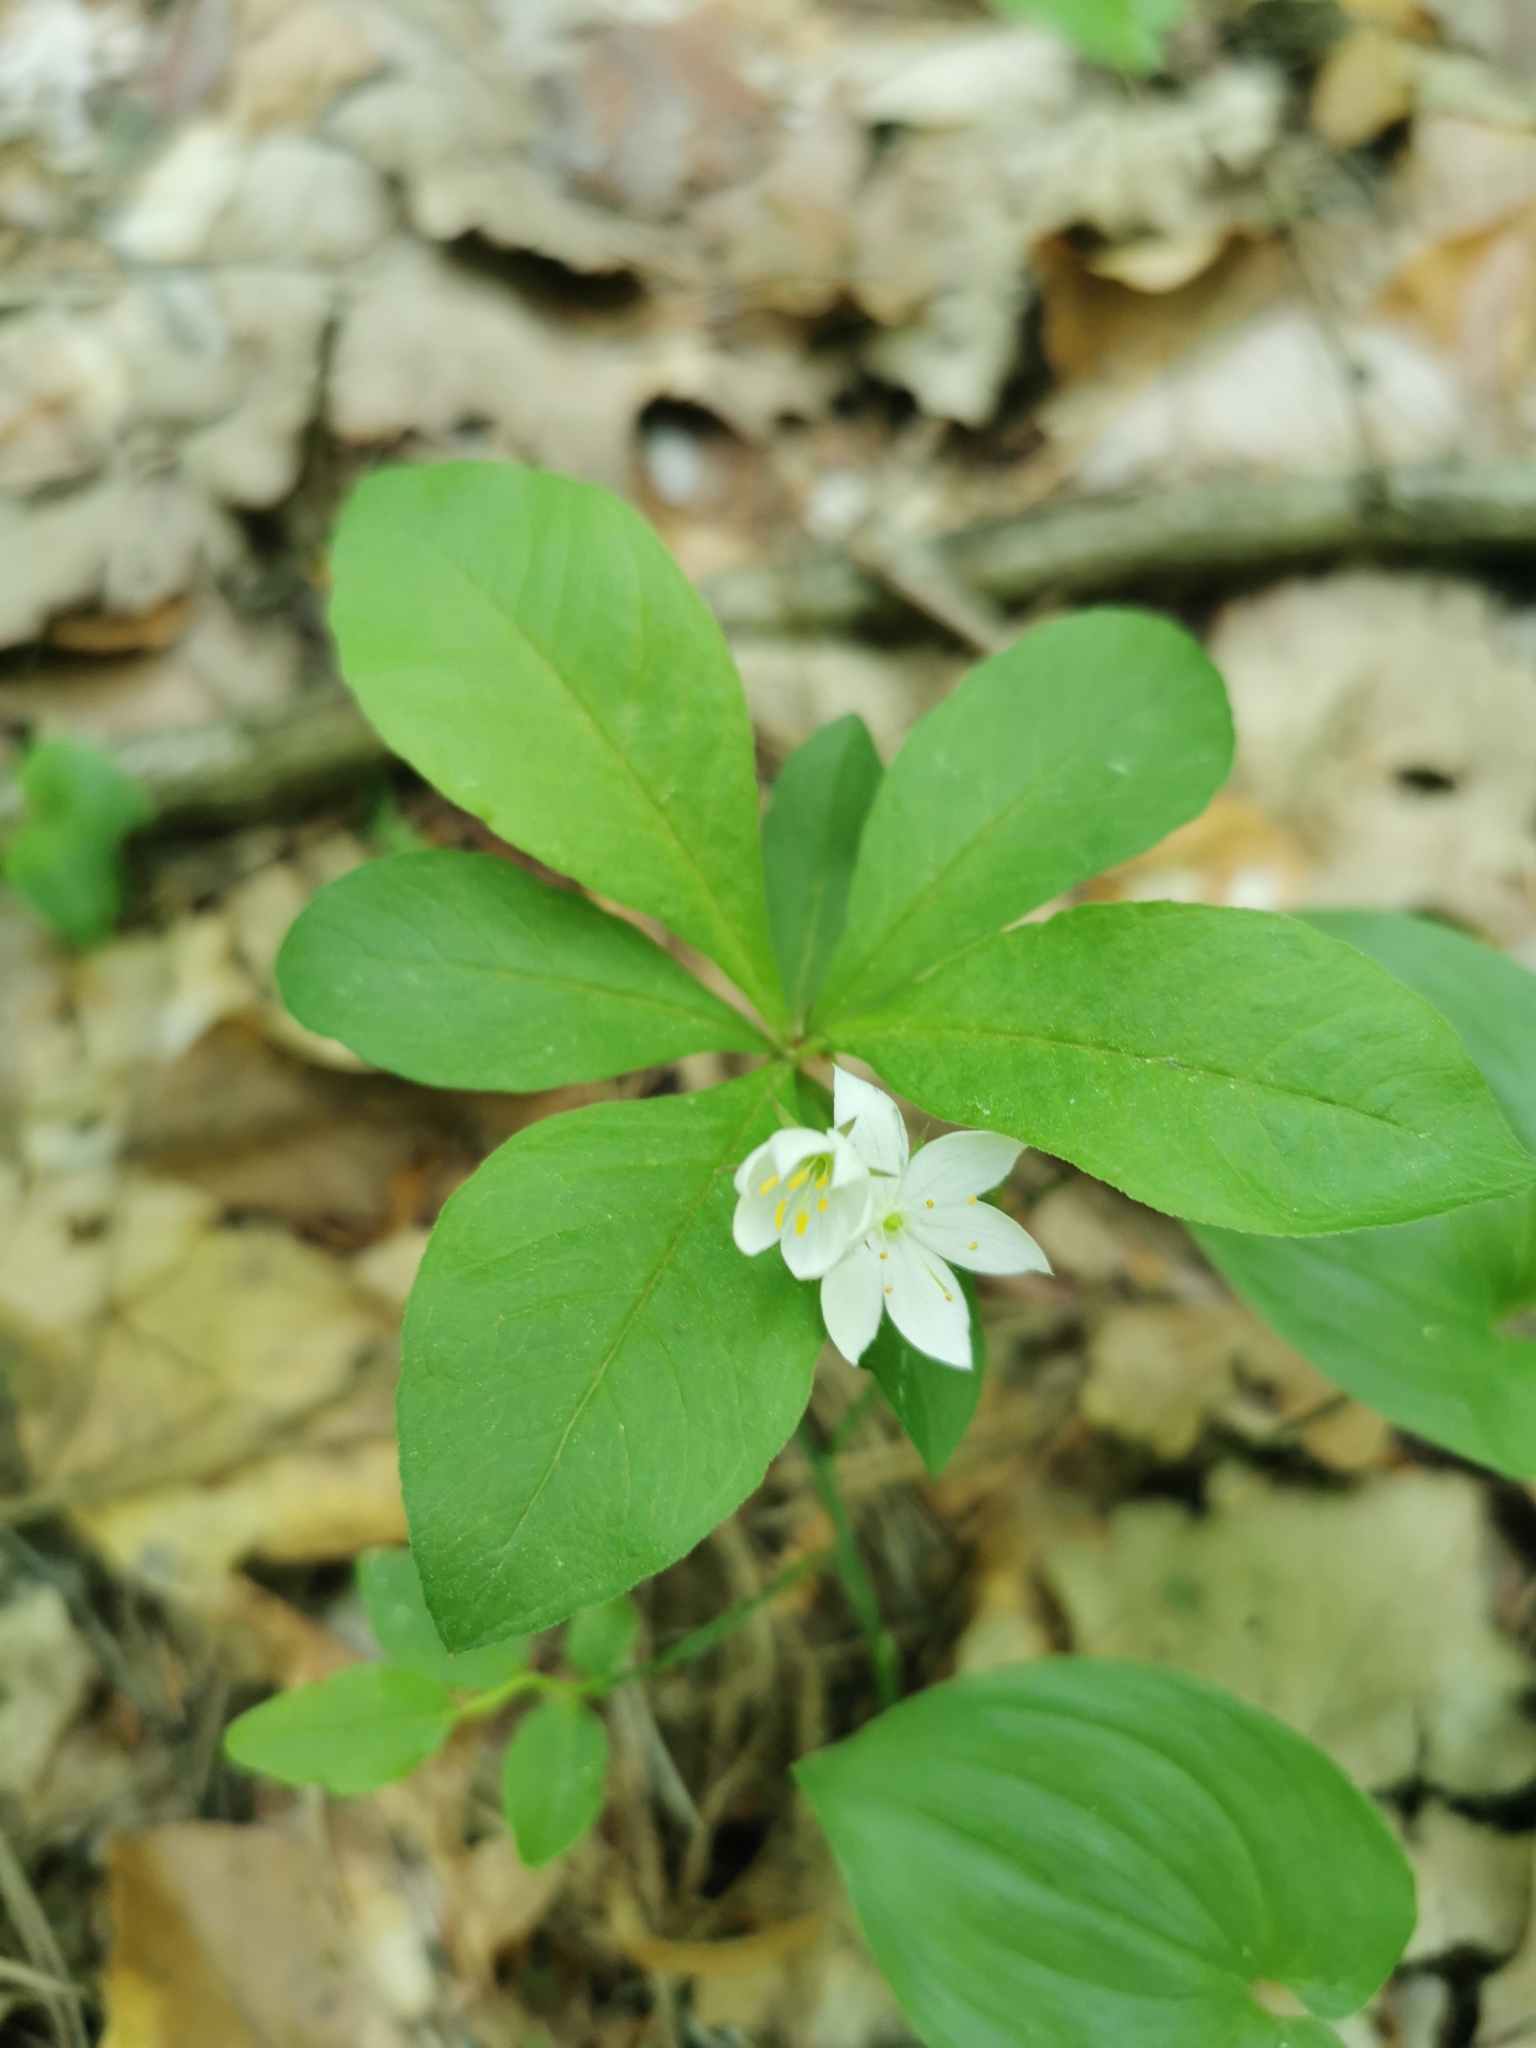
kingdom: Plantae
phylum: Tracheophyta
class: Magnoliopsida
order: Ericales
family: Primulaceae
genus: Lysimachia
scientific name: Lysimachia europaea
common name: Arctic starflower
